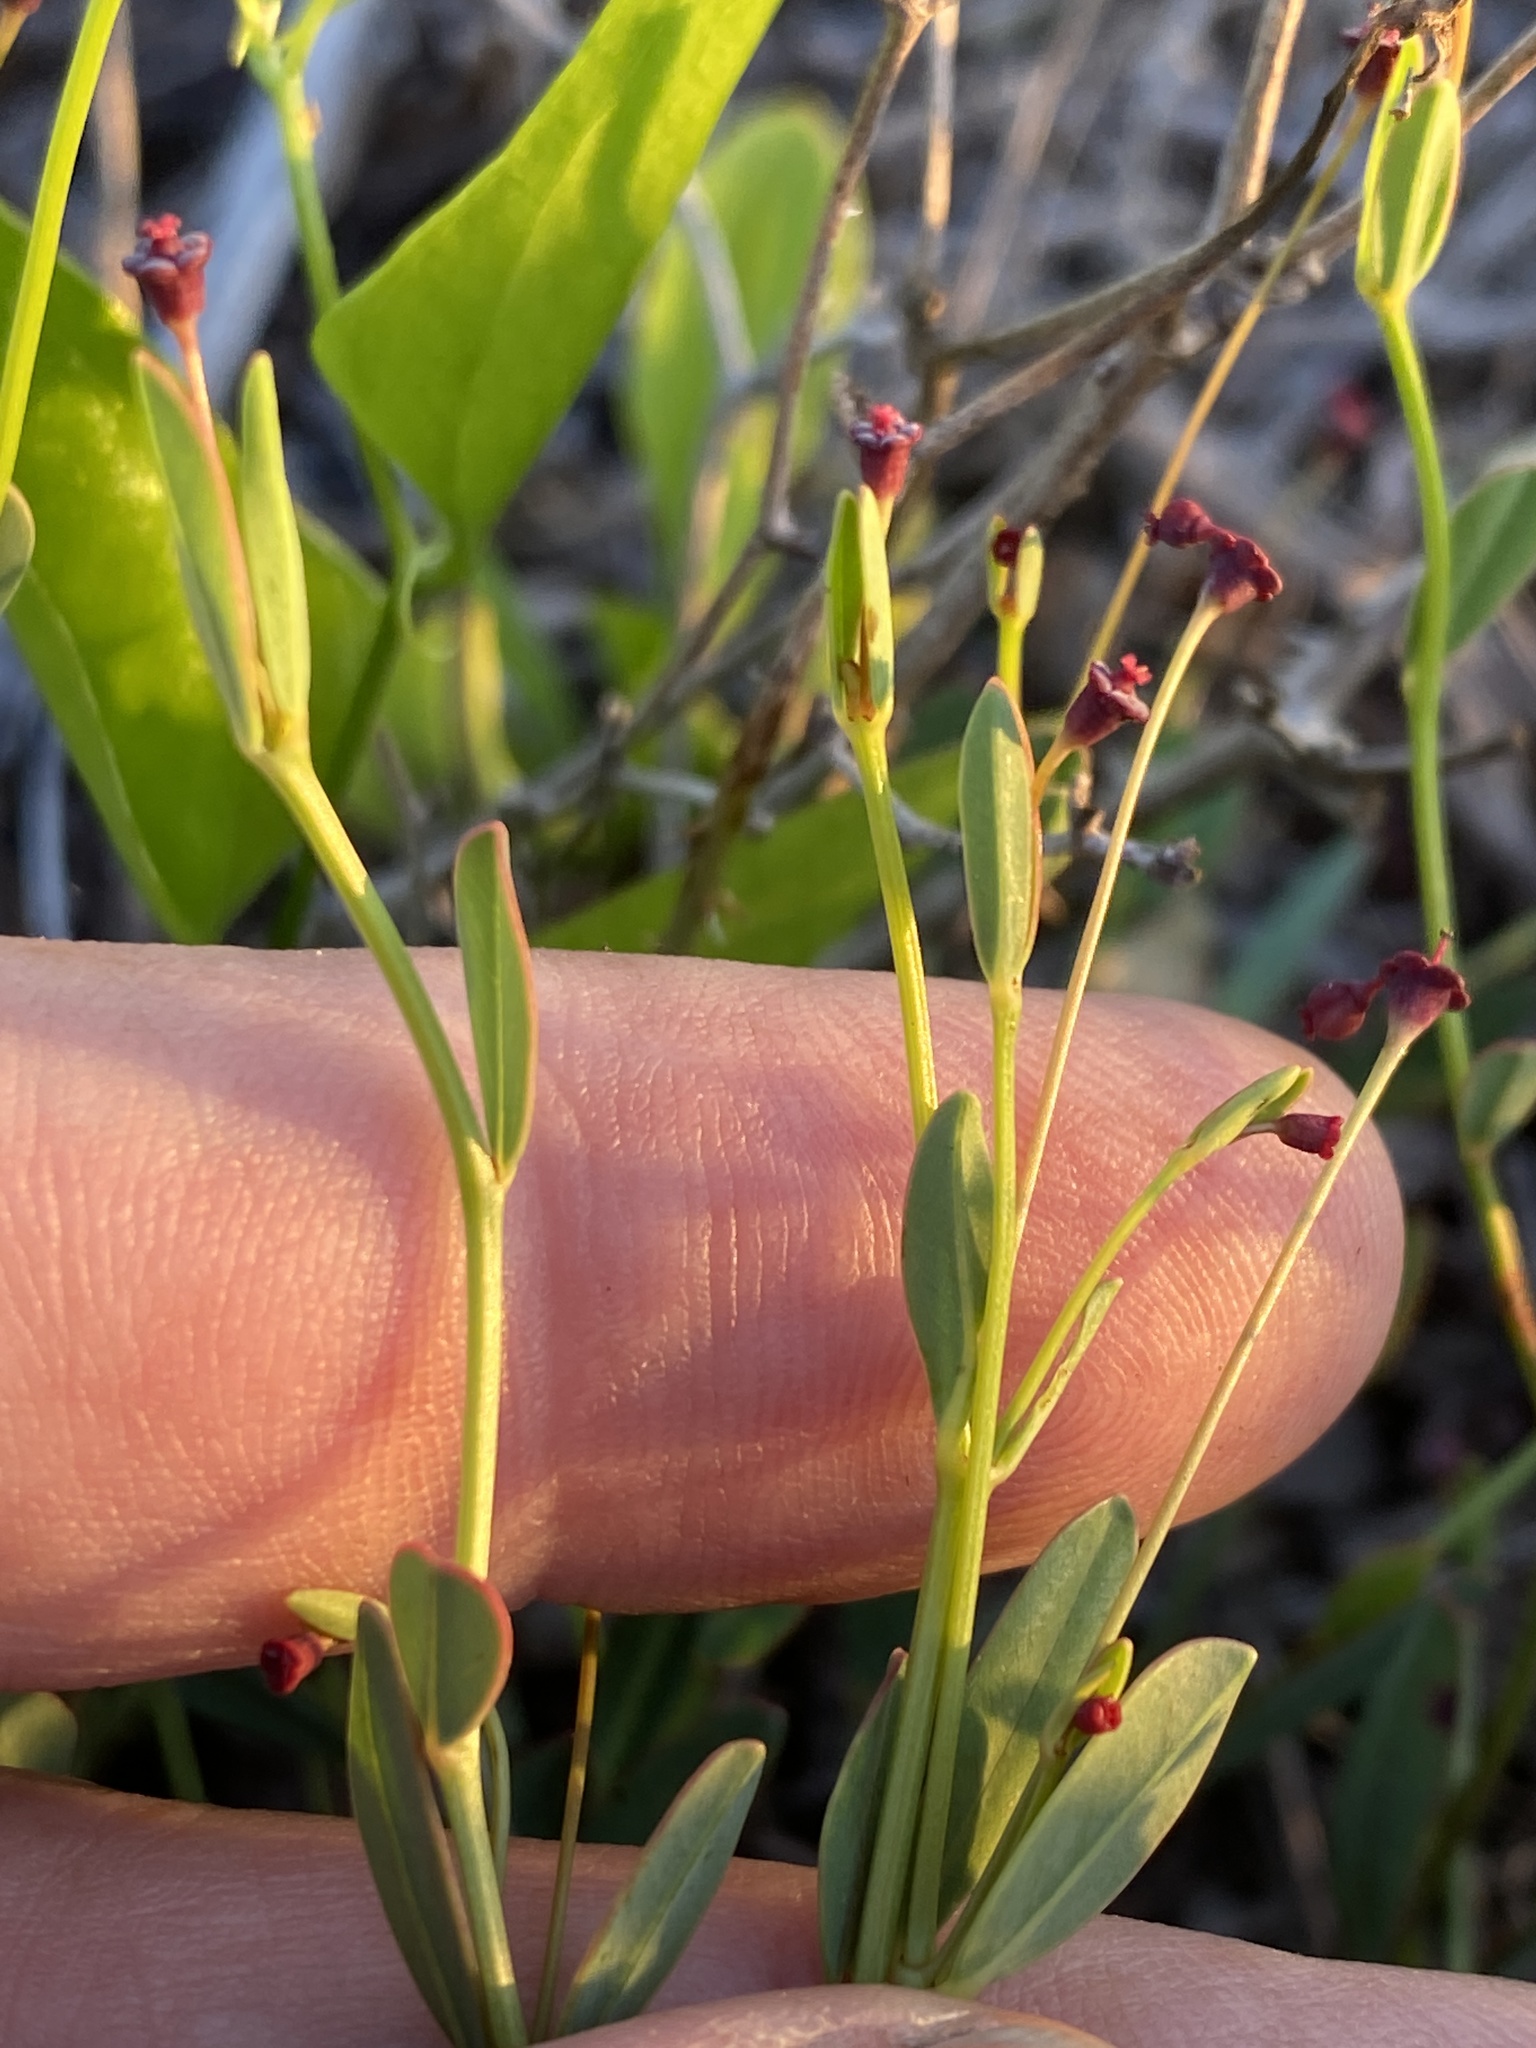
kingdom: Plantae
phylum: Tracheophyta
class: Magnoliopsida
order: Malpighiales
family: Euphorbiaceae
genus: Euphorbia
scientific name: Euphorbia exserta
